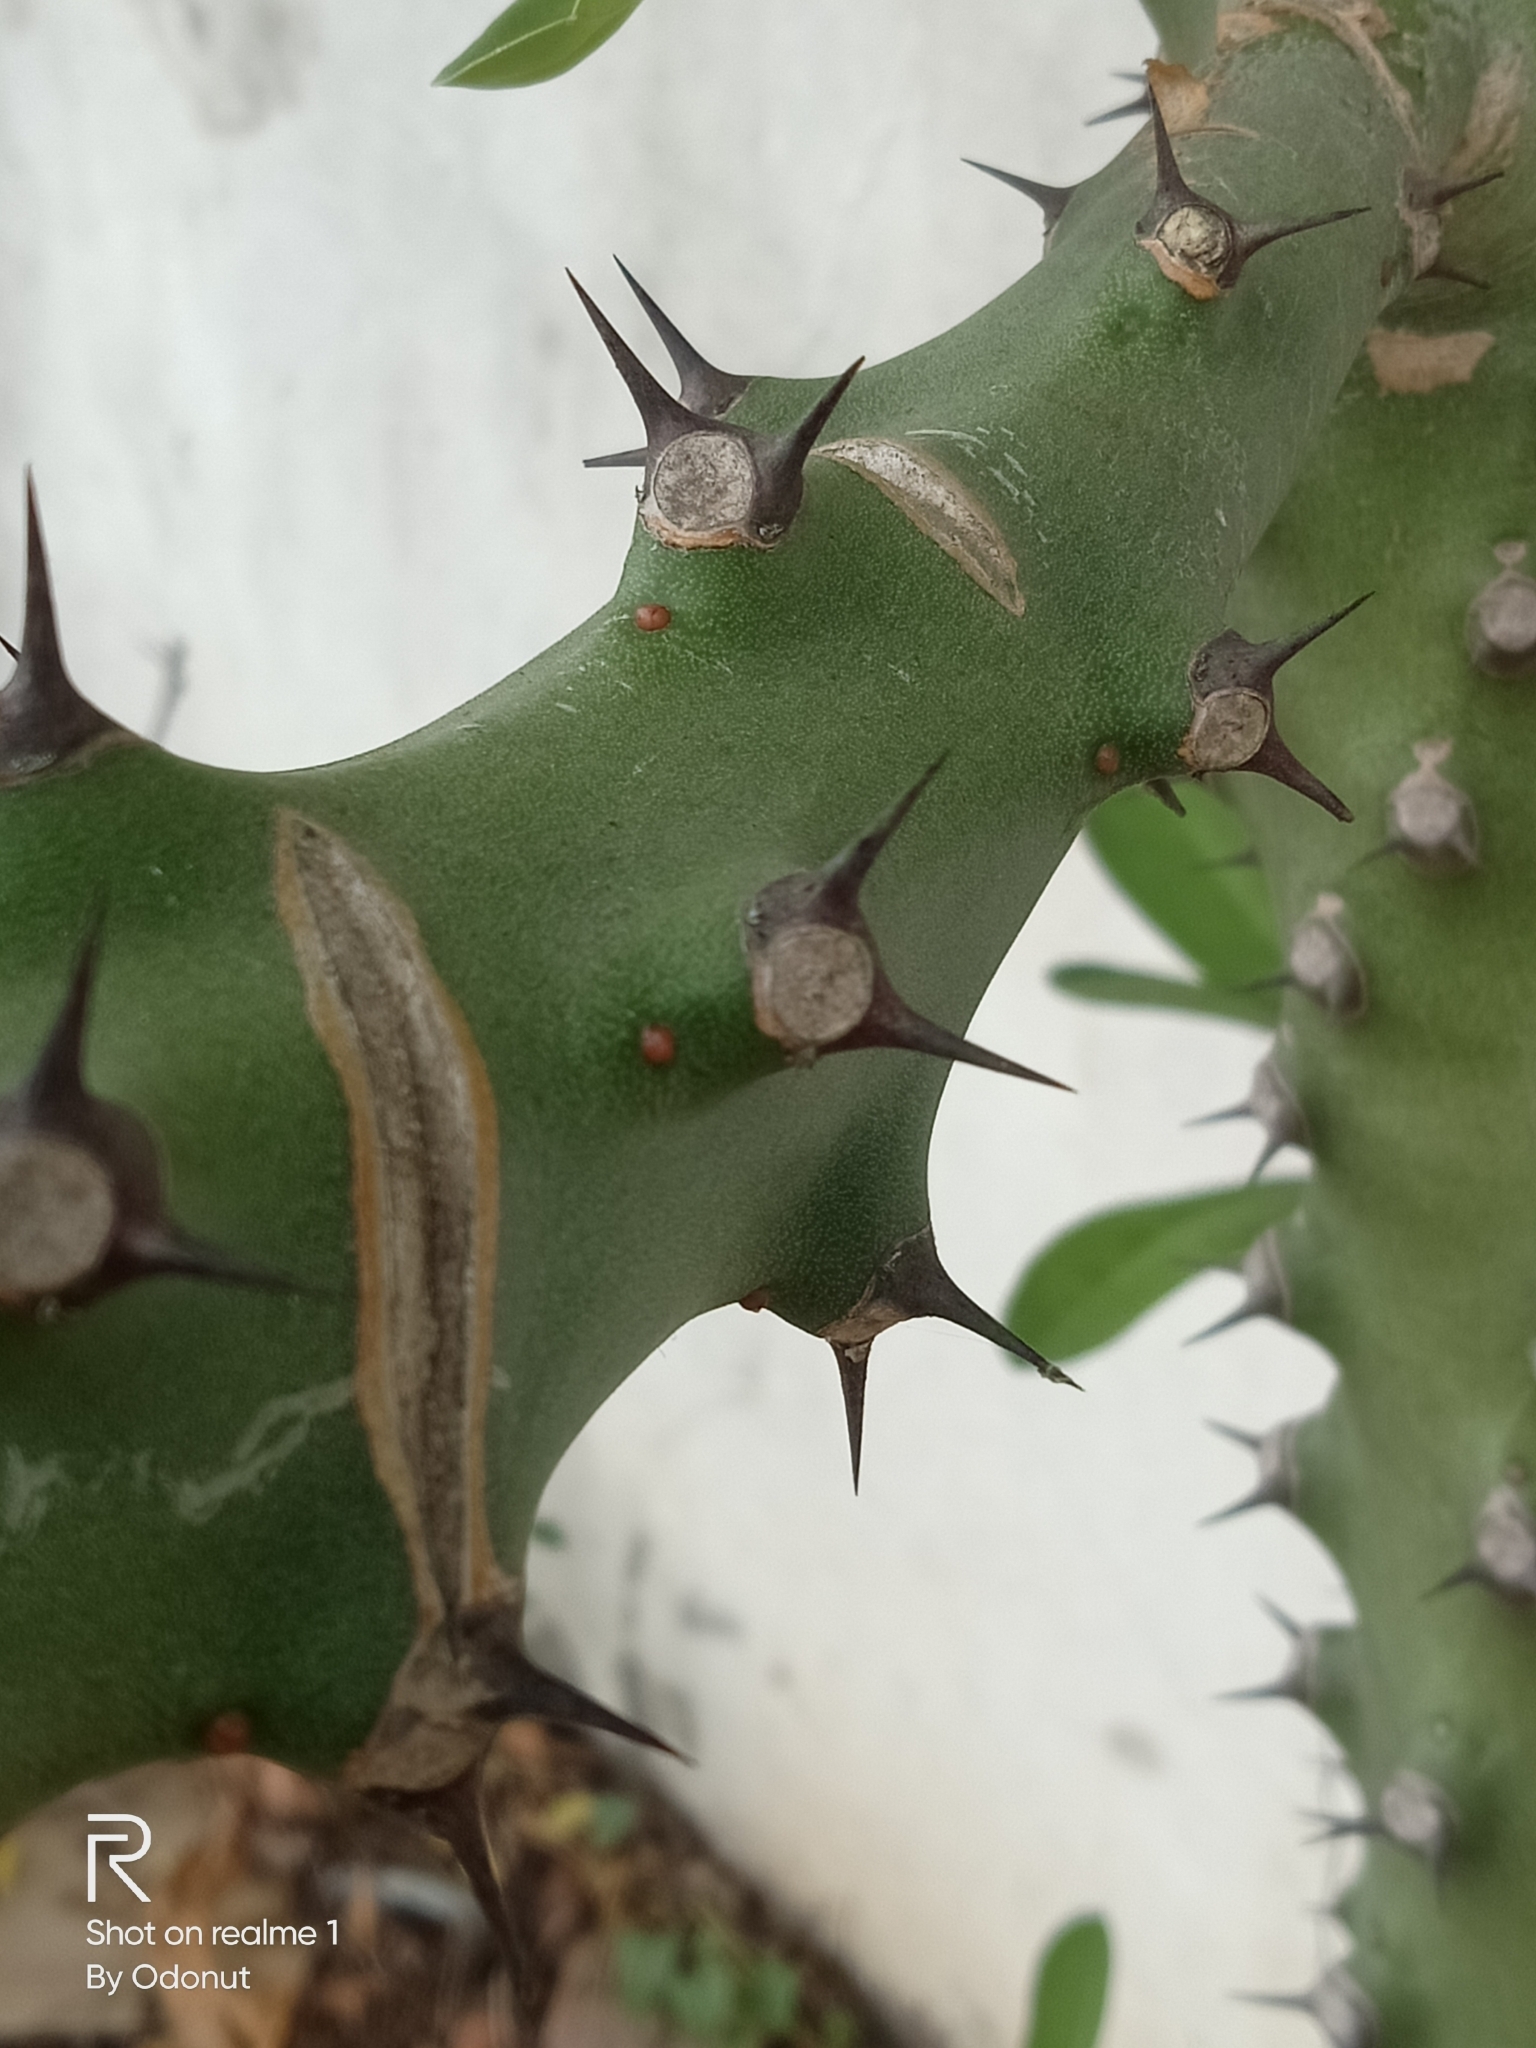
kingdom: Plantae
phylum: Tracheophyta
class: Magnoliopsida
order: Malpighiales
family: Euphorbiaceae
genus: Euphorbia
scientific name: Euphorbia neriifolia
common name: Hedge euphorbia
